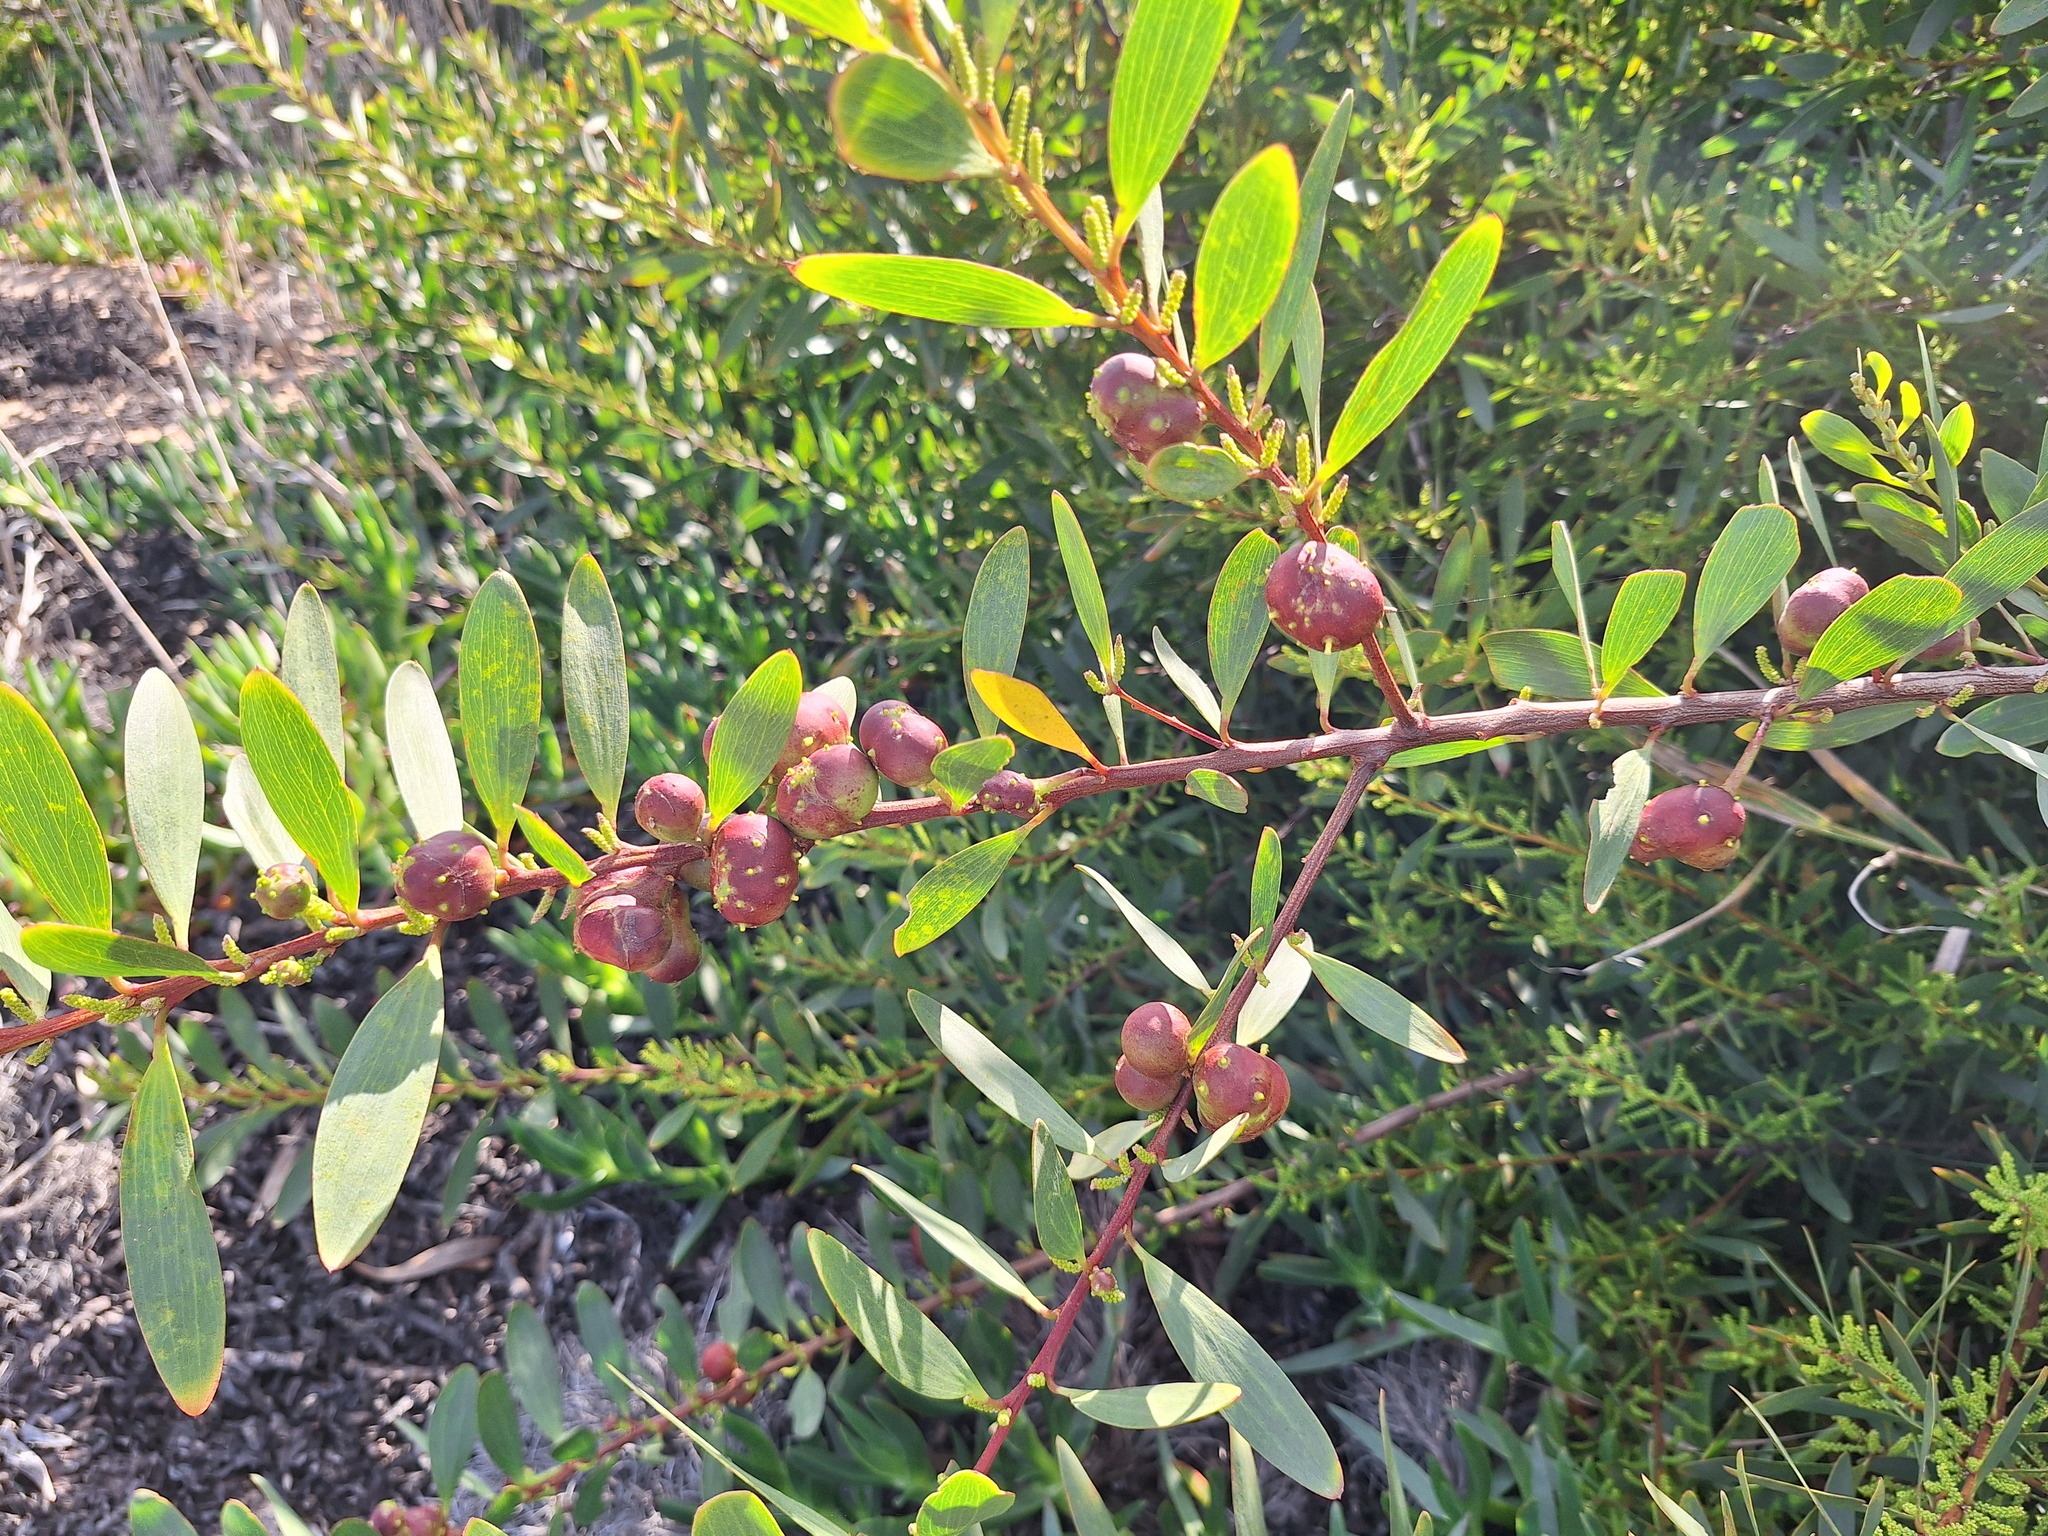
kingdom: Animalia
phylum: Arthropoda
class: Insecta
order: Hymenoptera
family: Pteromalidae
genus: Trichilogaster
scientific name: Trichilogaster acaciaelongifoliae
